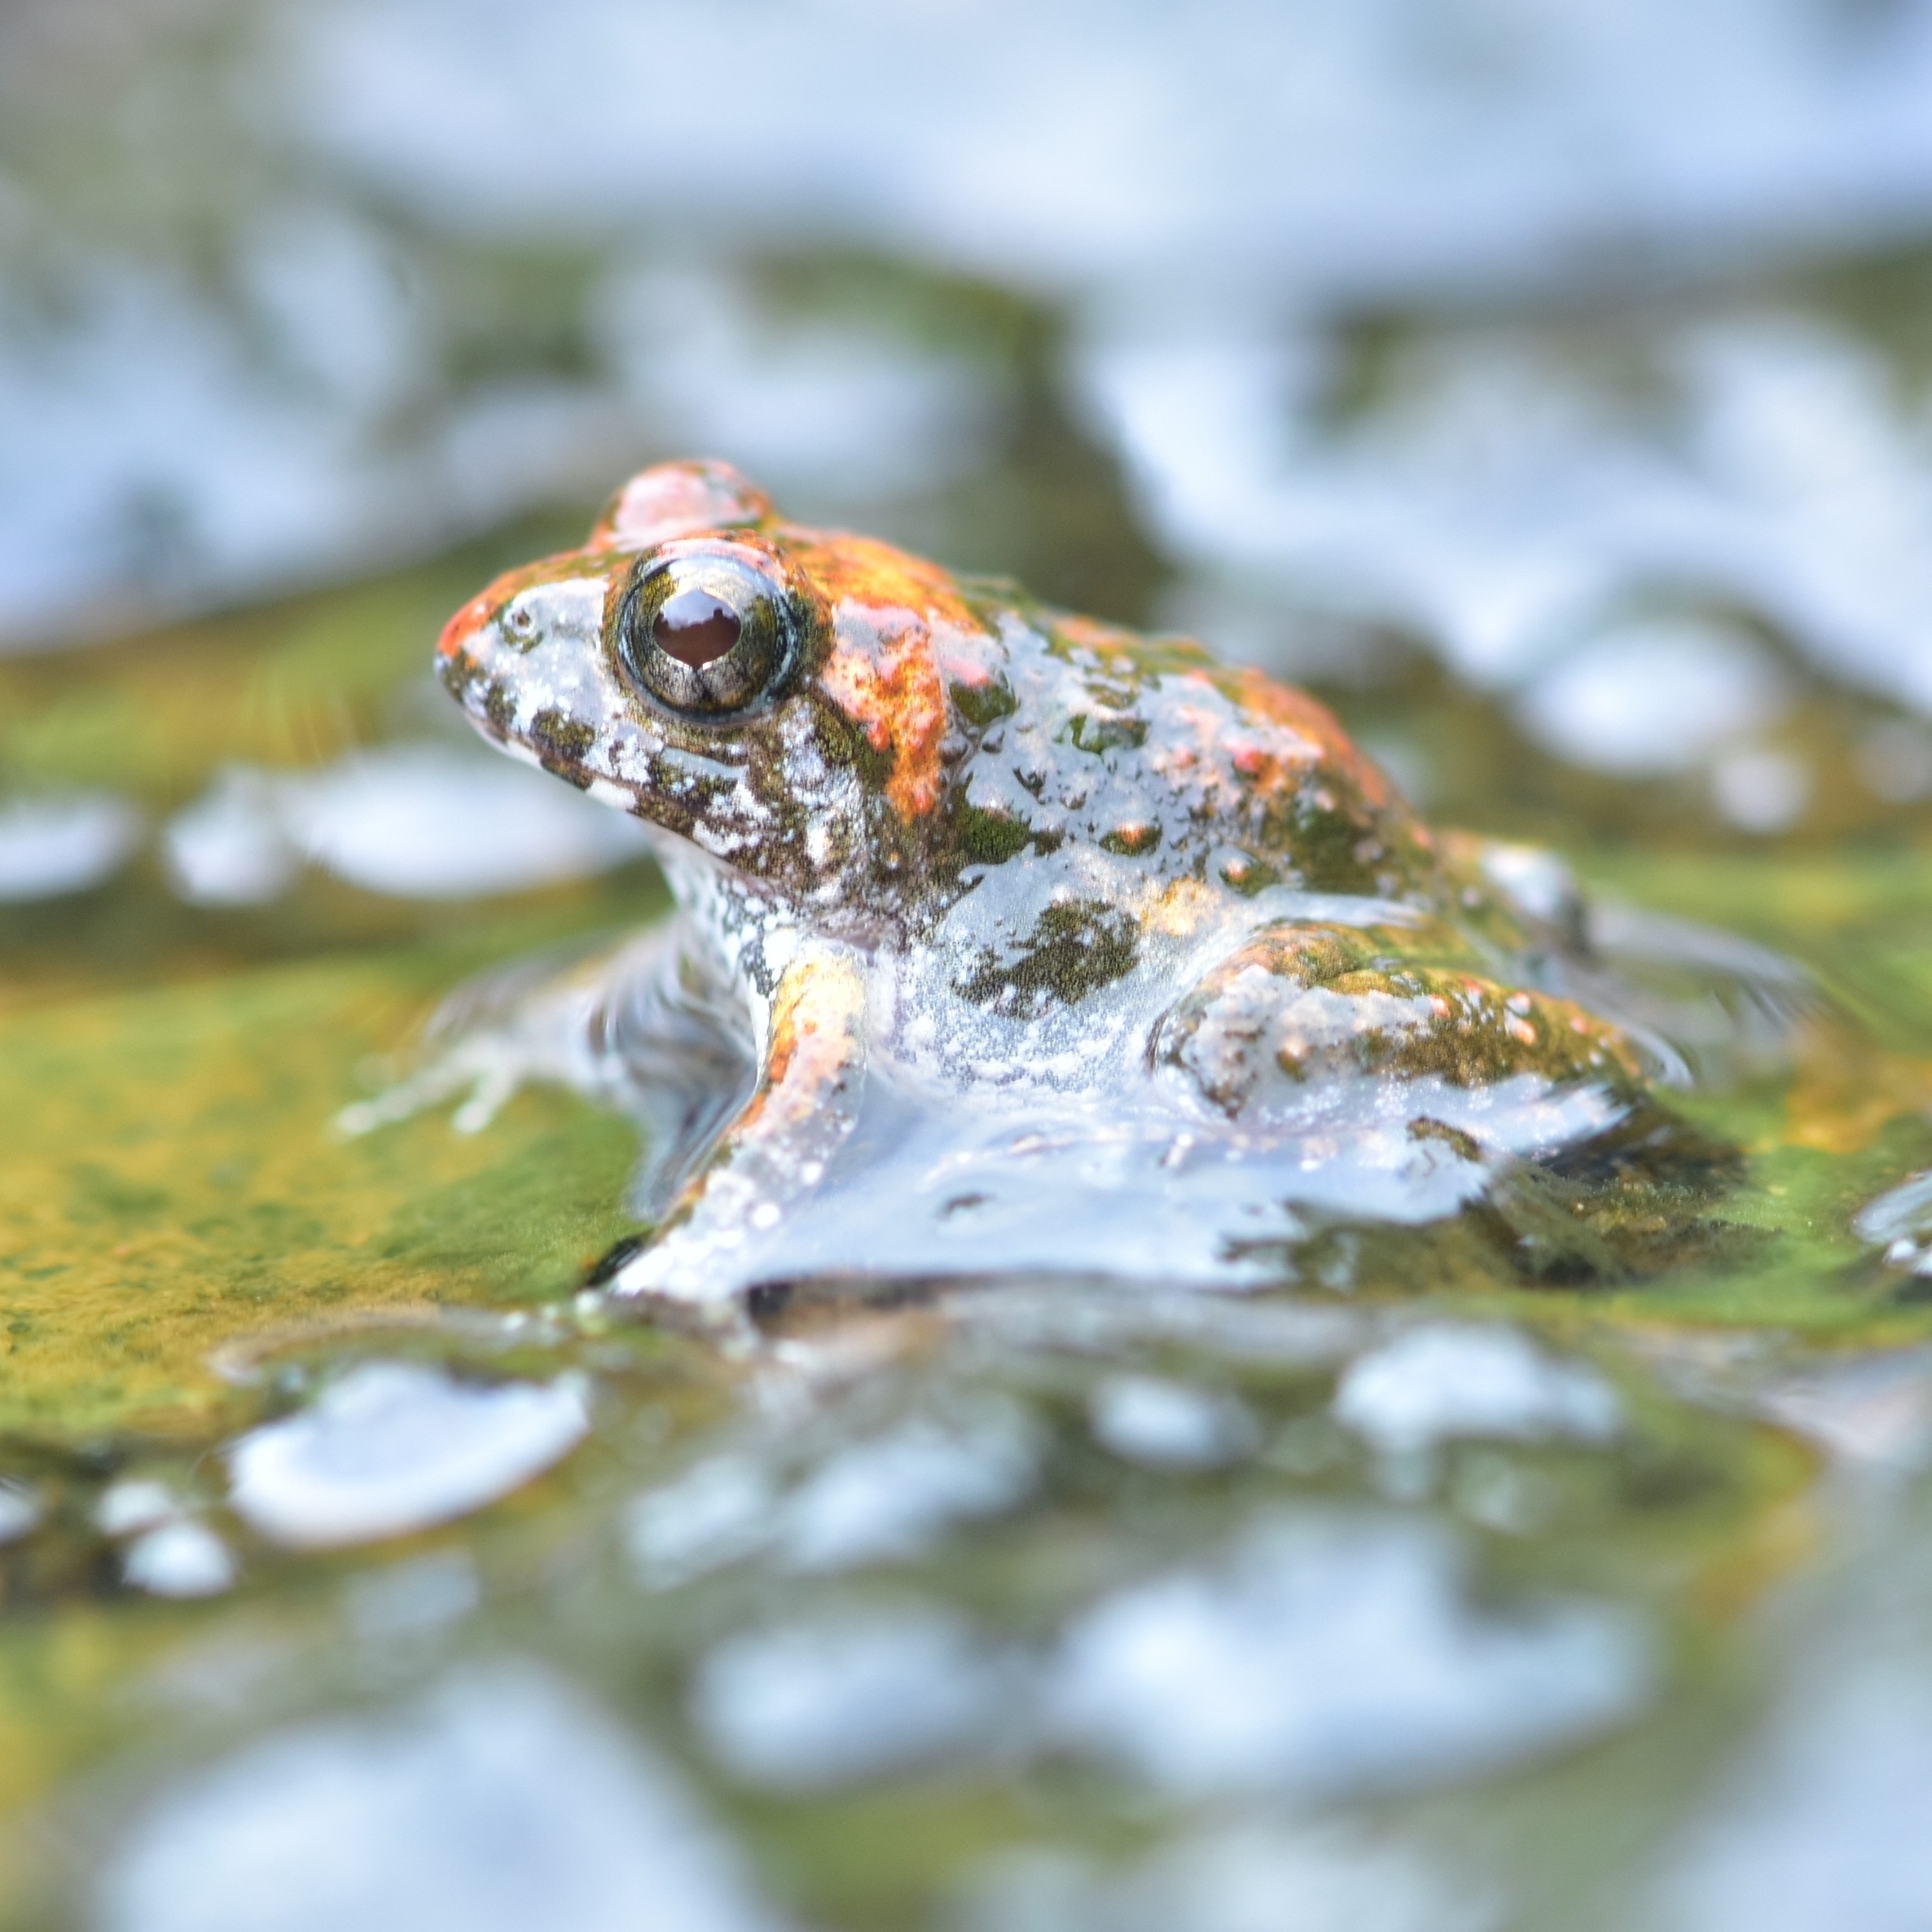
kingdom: Animalia
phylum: Chordata
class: Amphibia
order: Anura
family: Dicroglossidae
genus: Minervarya
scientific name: Minervarya kadar
